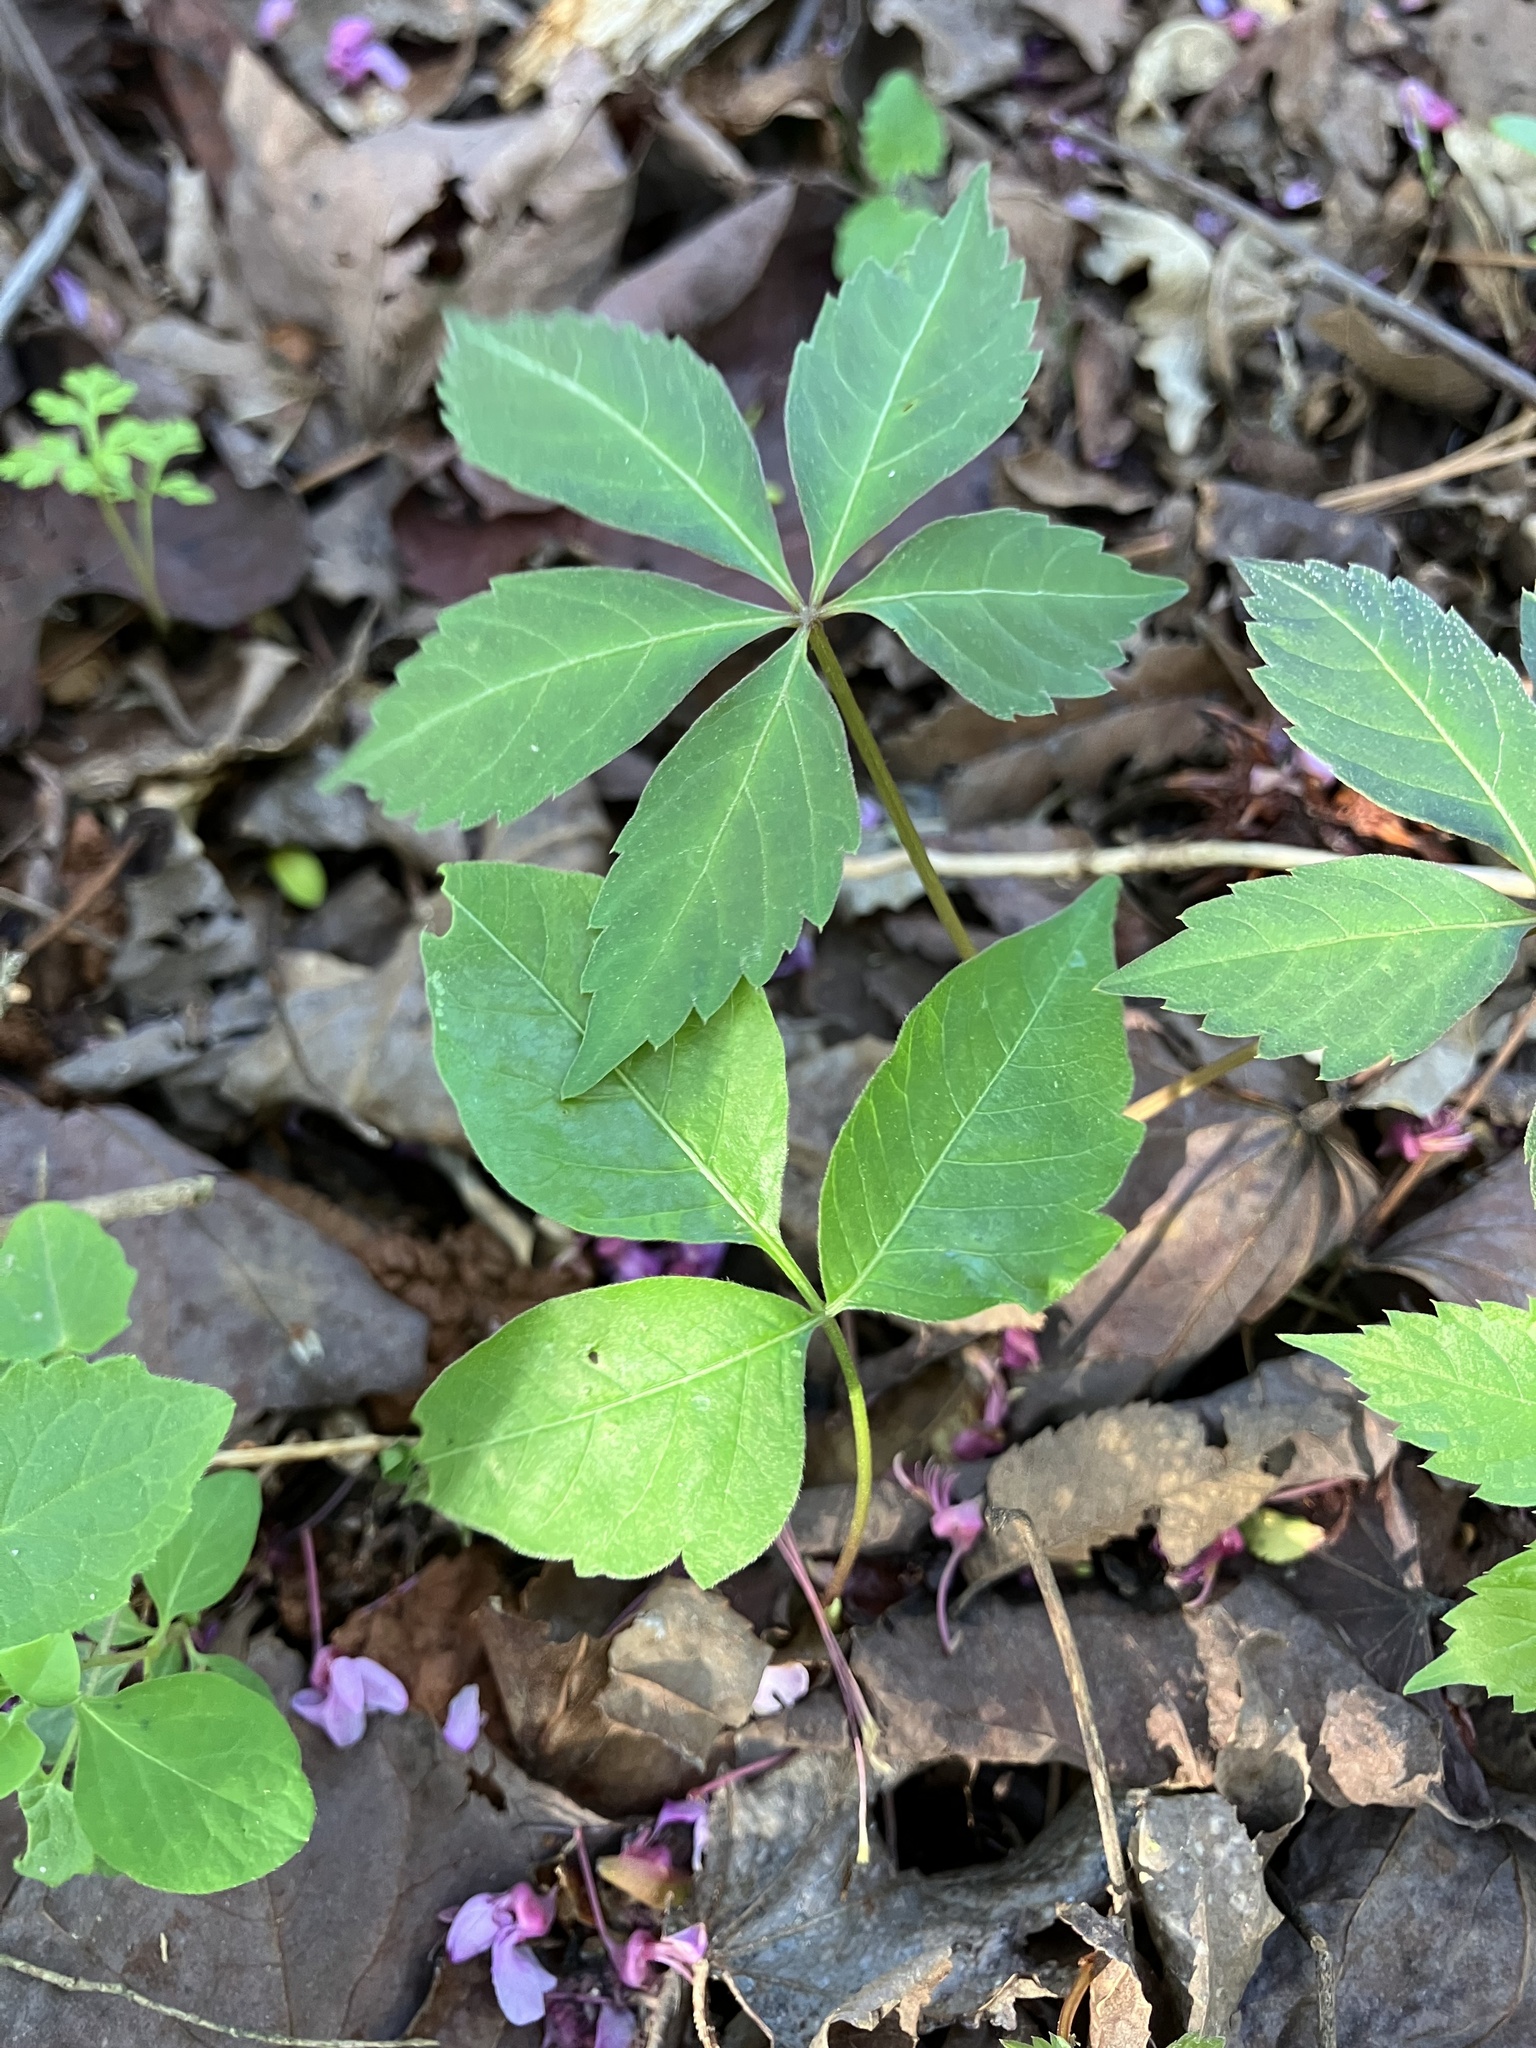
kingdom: Plantae
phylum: Tracheophyta
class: Magnoliopsida
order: Vitales
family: Vitaceae
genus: Parthenocissus
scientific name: Parthenocissus quinquefolia
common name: Virginia-creeper
